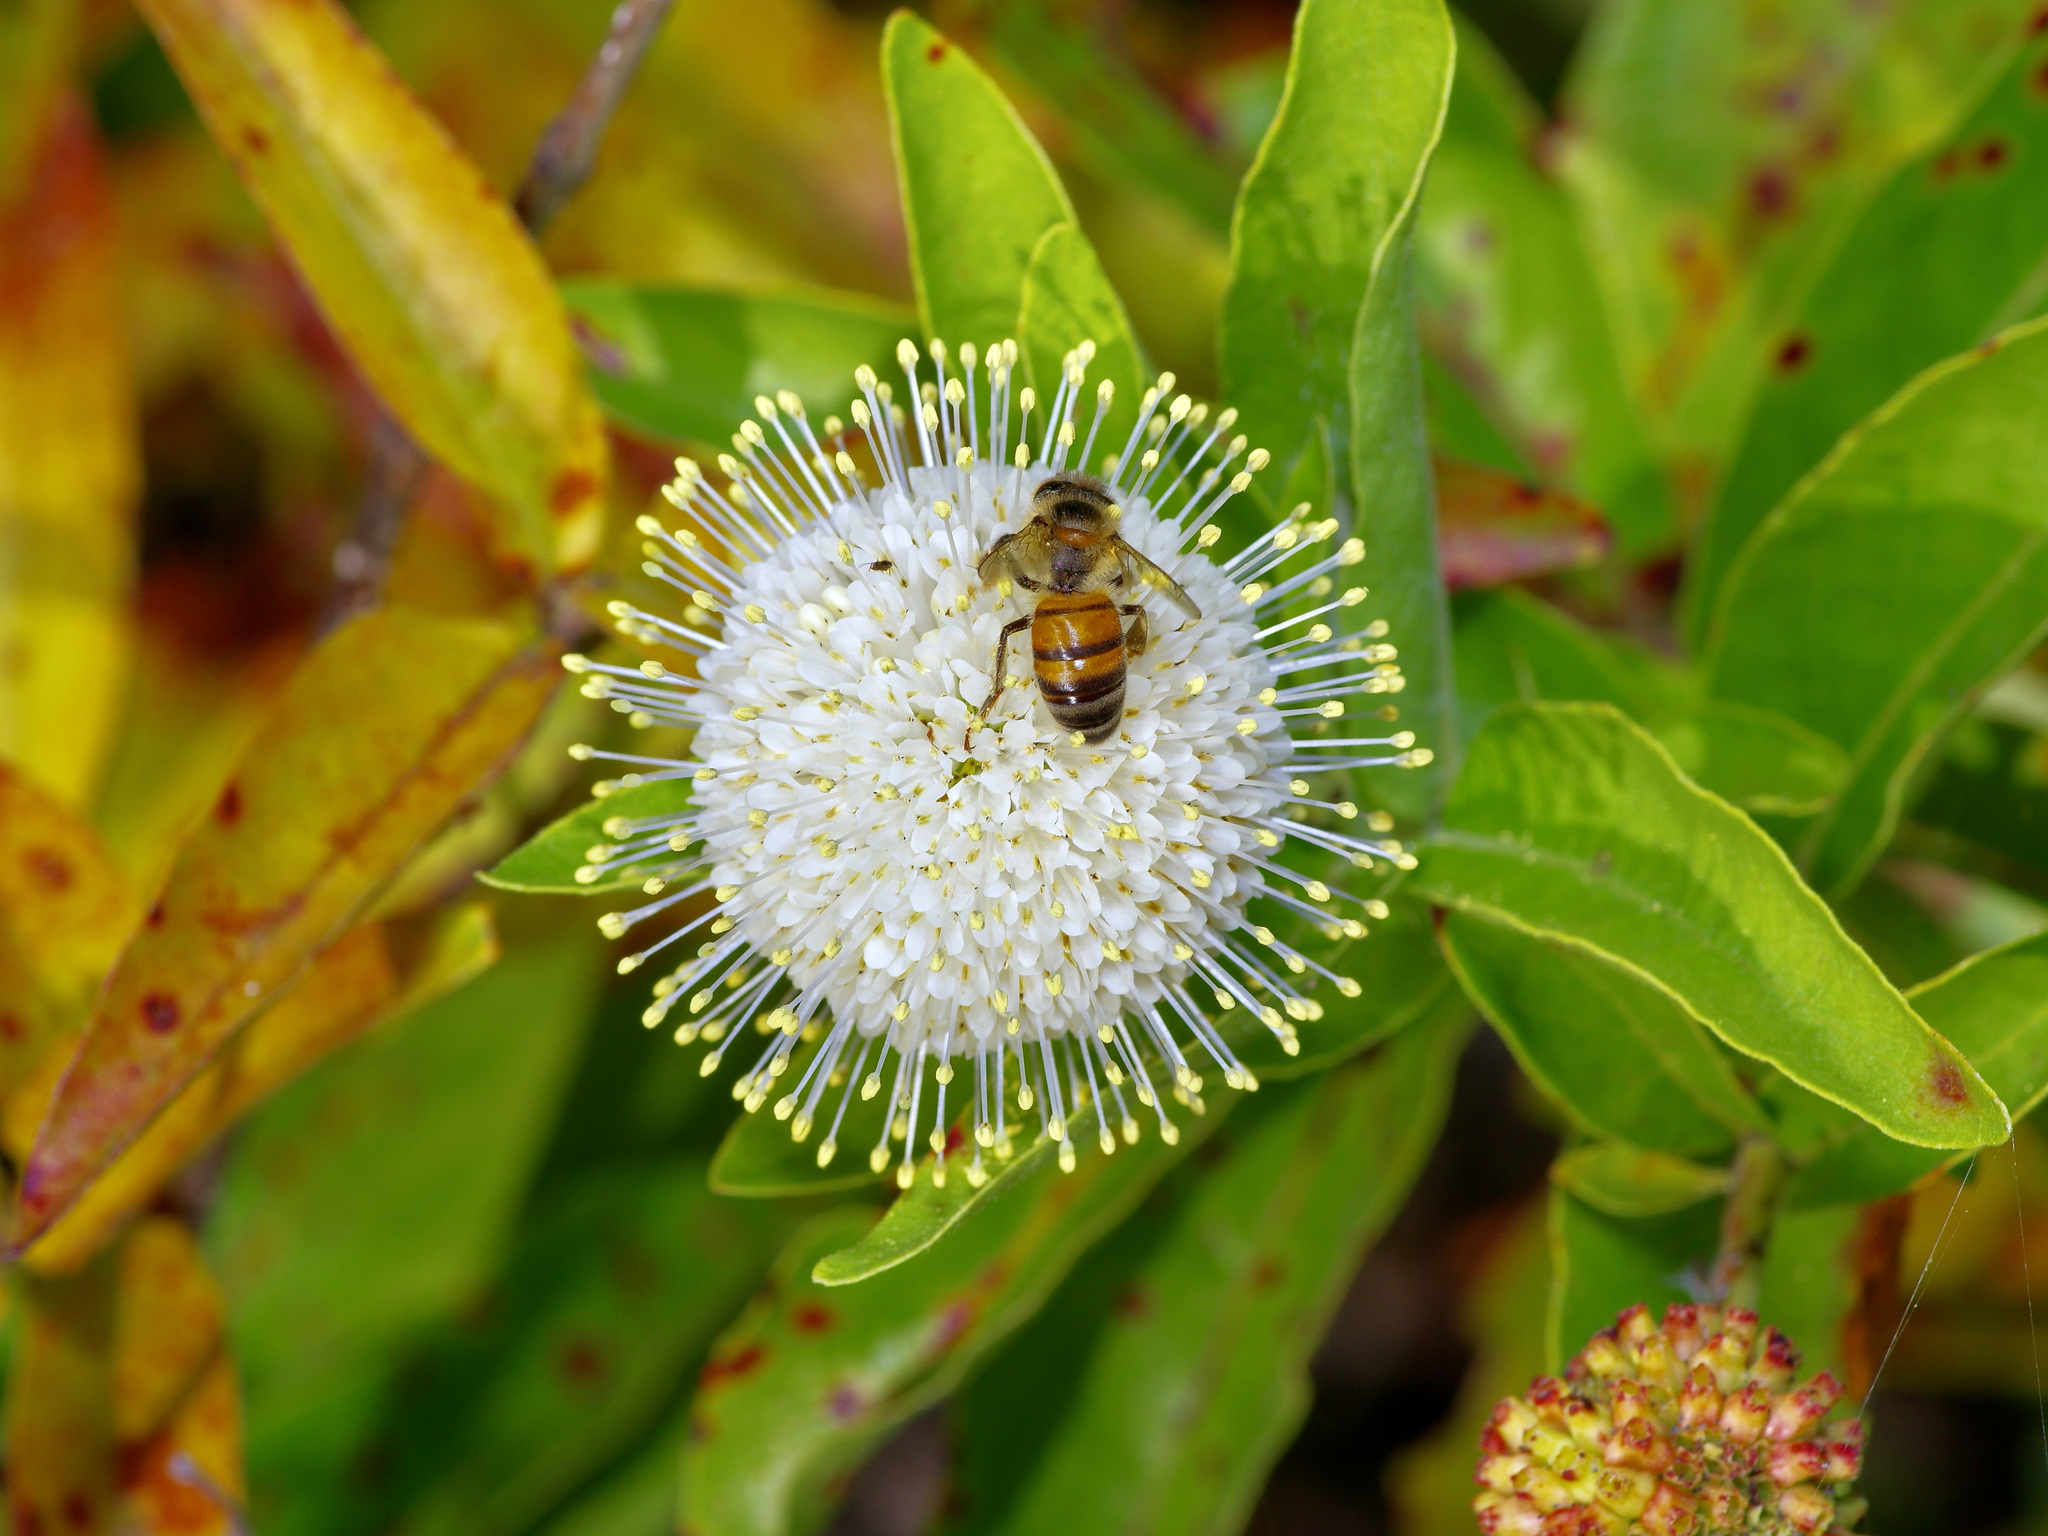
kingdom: Plantae
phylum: Tracheophyta
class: Magnoliopsida
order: Gentianales
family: Rubiaceae
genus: Cephalanthus
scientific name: Cephalanthus occidentalis
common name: Button-willow
